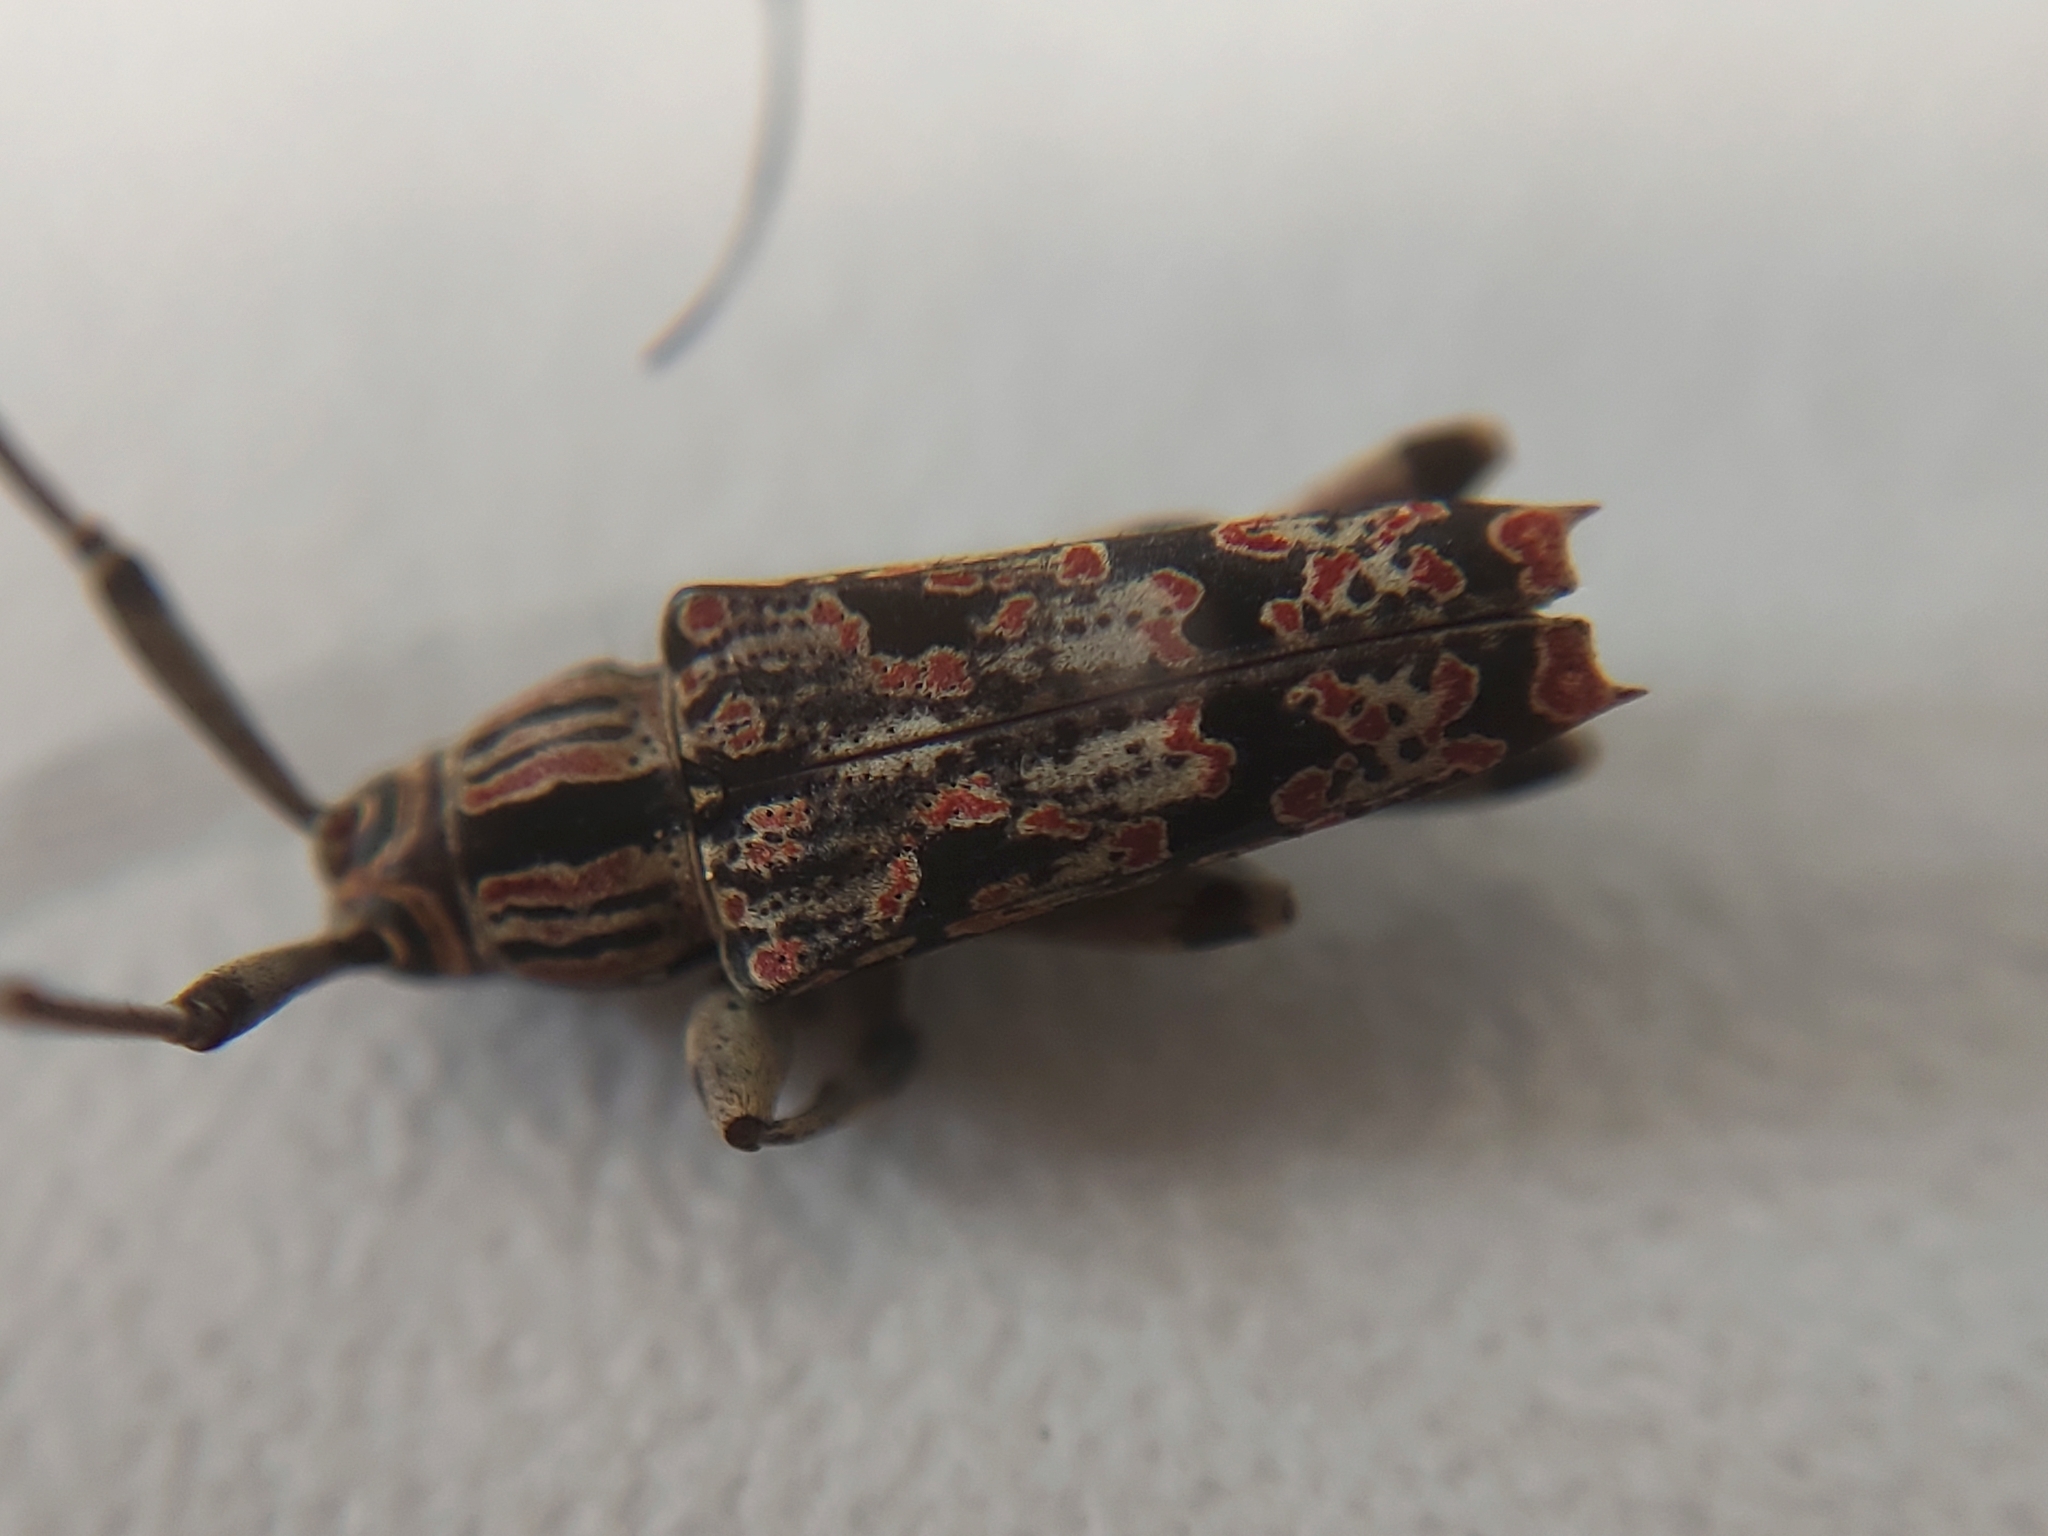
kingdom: Animalia
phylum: Arthropoda
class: Insecta
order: Coleoptera
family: Cerambycidae
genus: Colobothea
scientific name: Colobothea rubroornata
